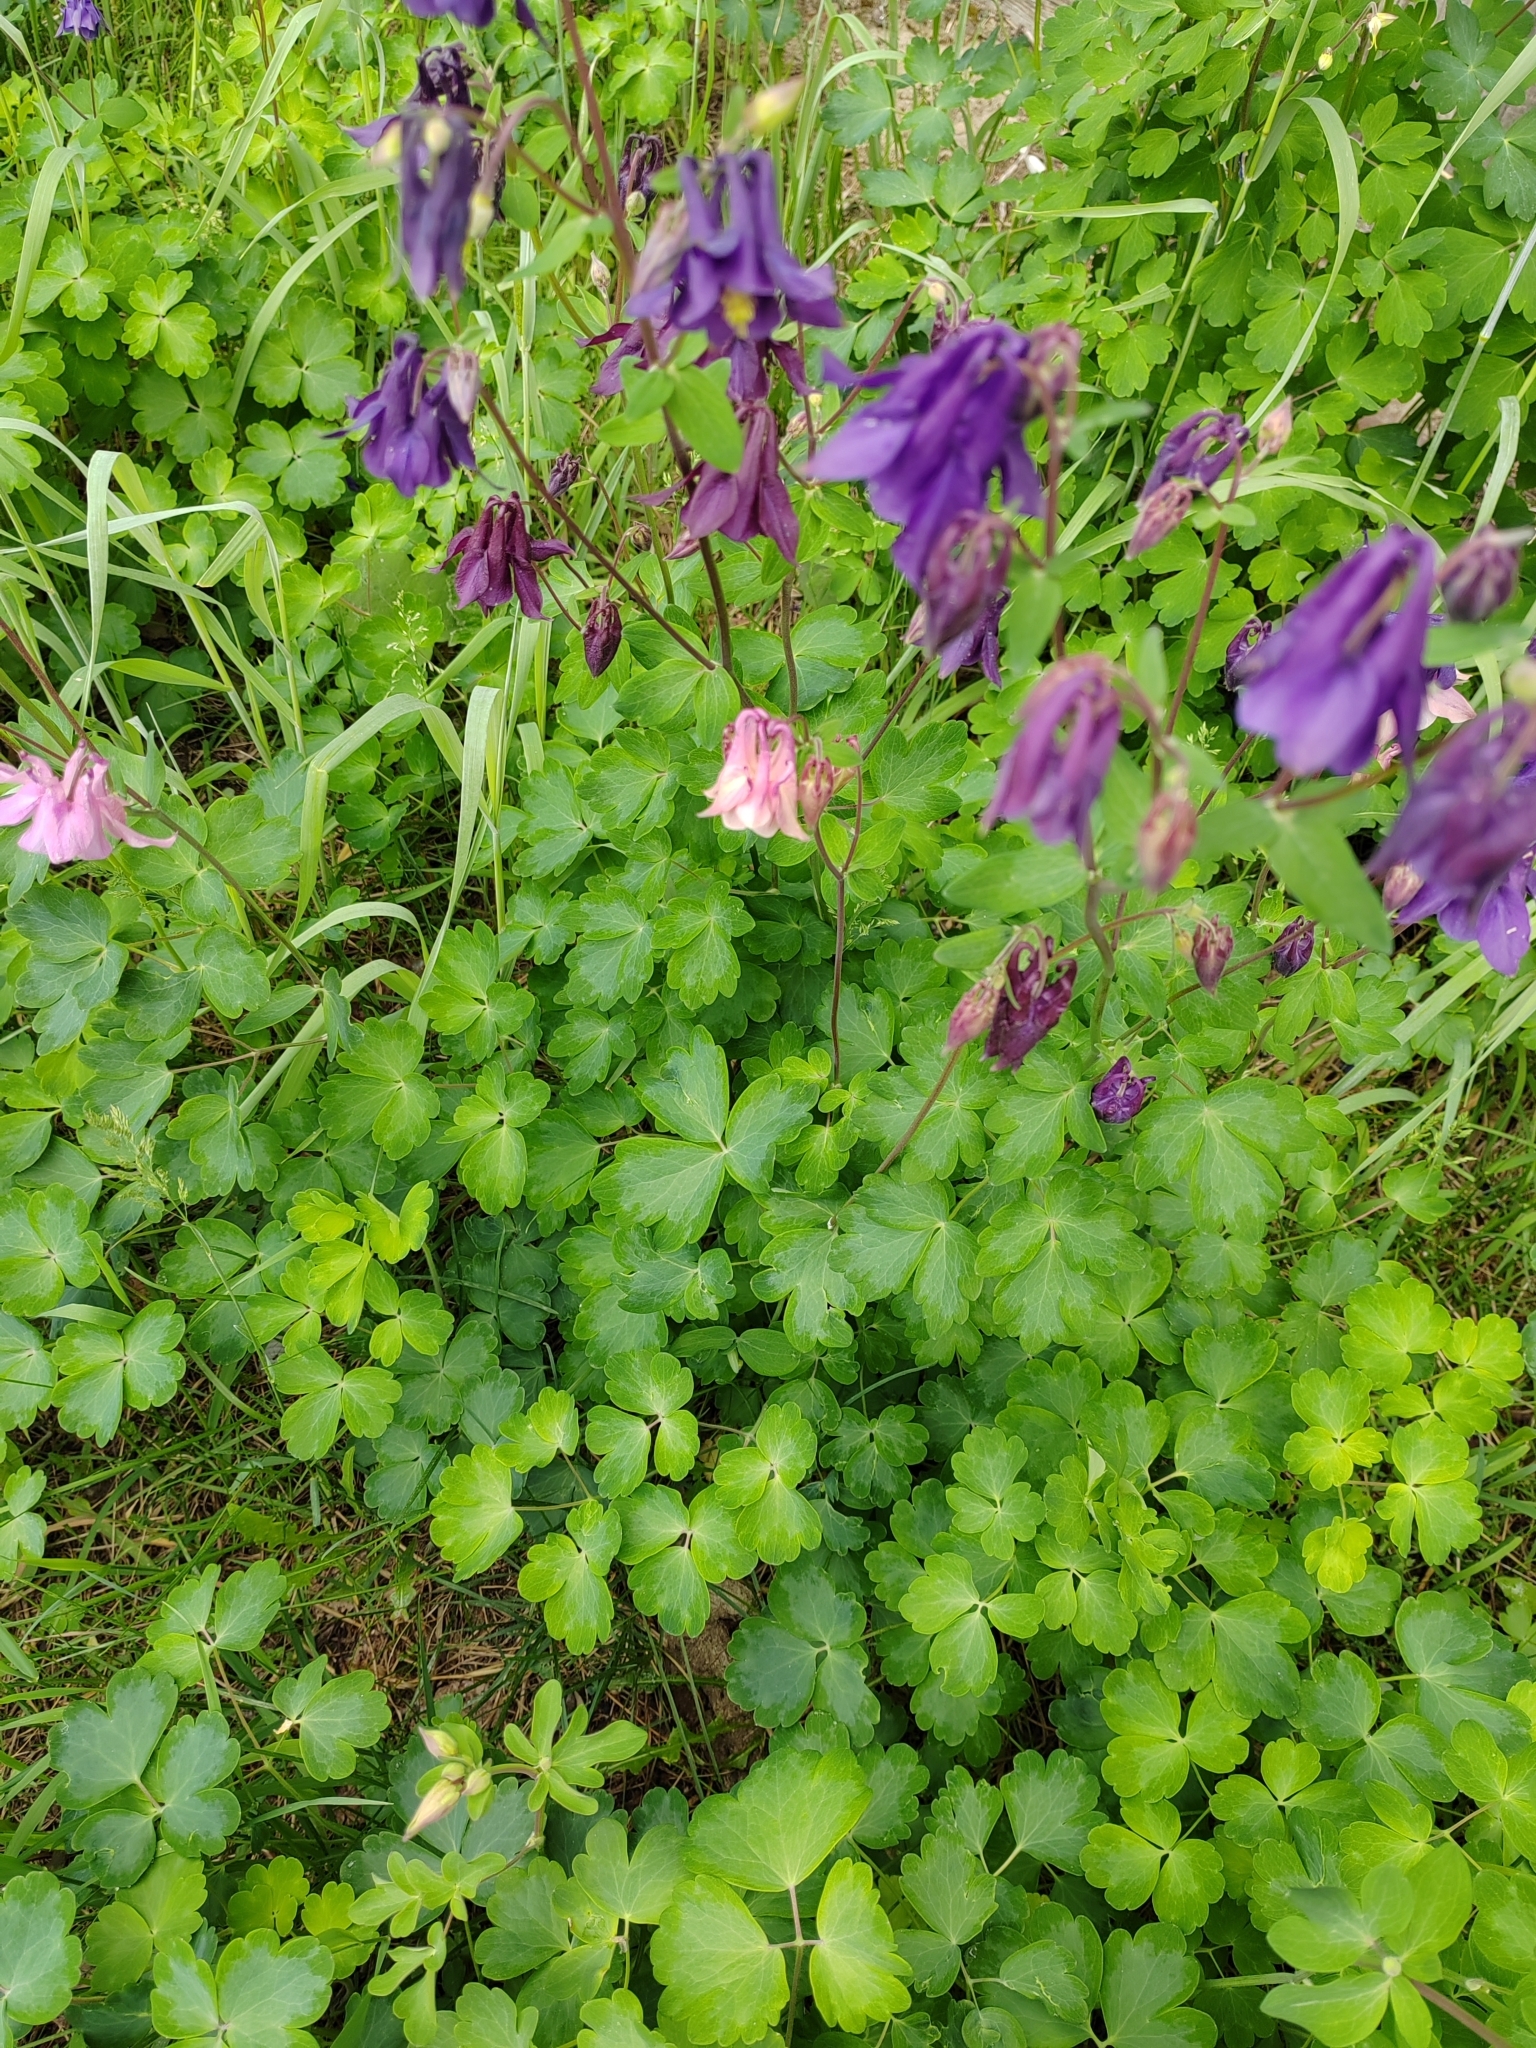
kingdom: Plantae
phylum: Tracheophyta
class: Magnoliopsida
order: Ranunculales
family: Ranunculaceae
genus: Aquilegia
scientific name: Aquilegia vulgaris
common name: Columbine
